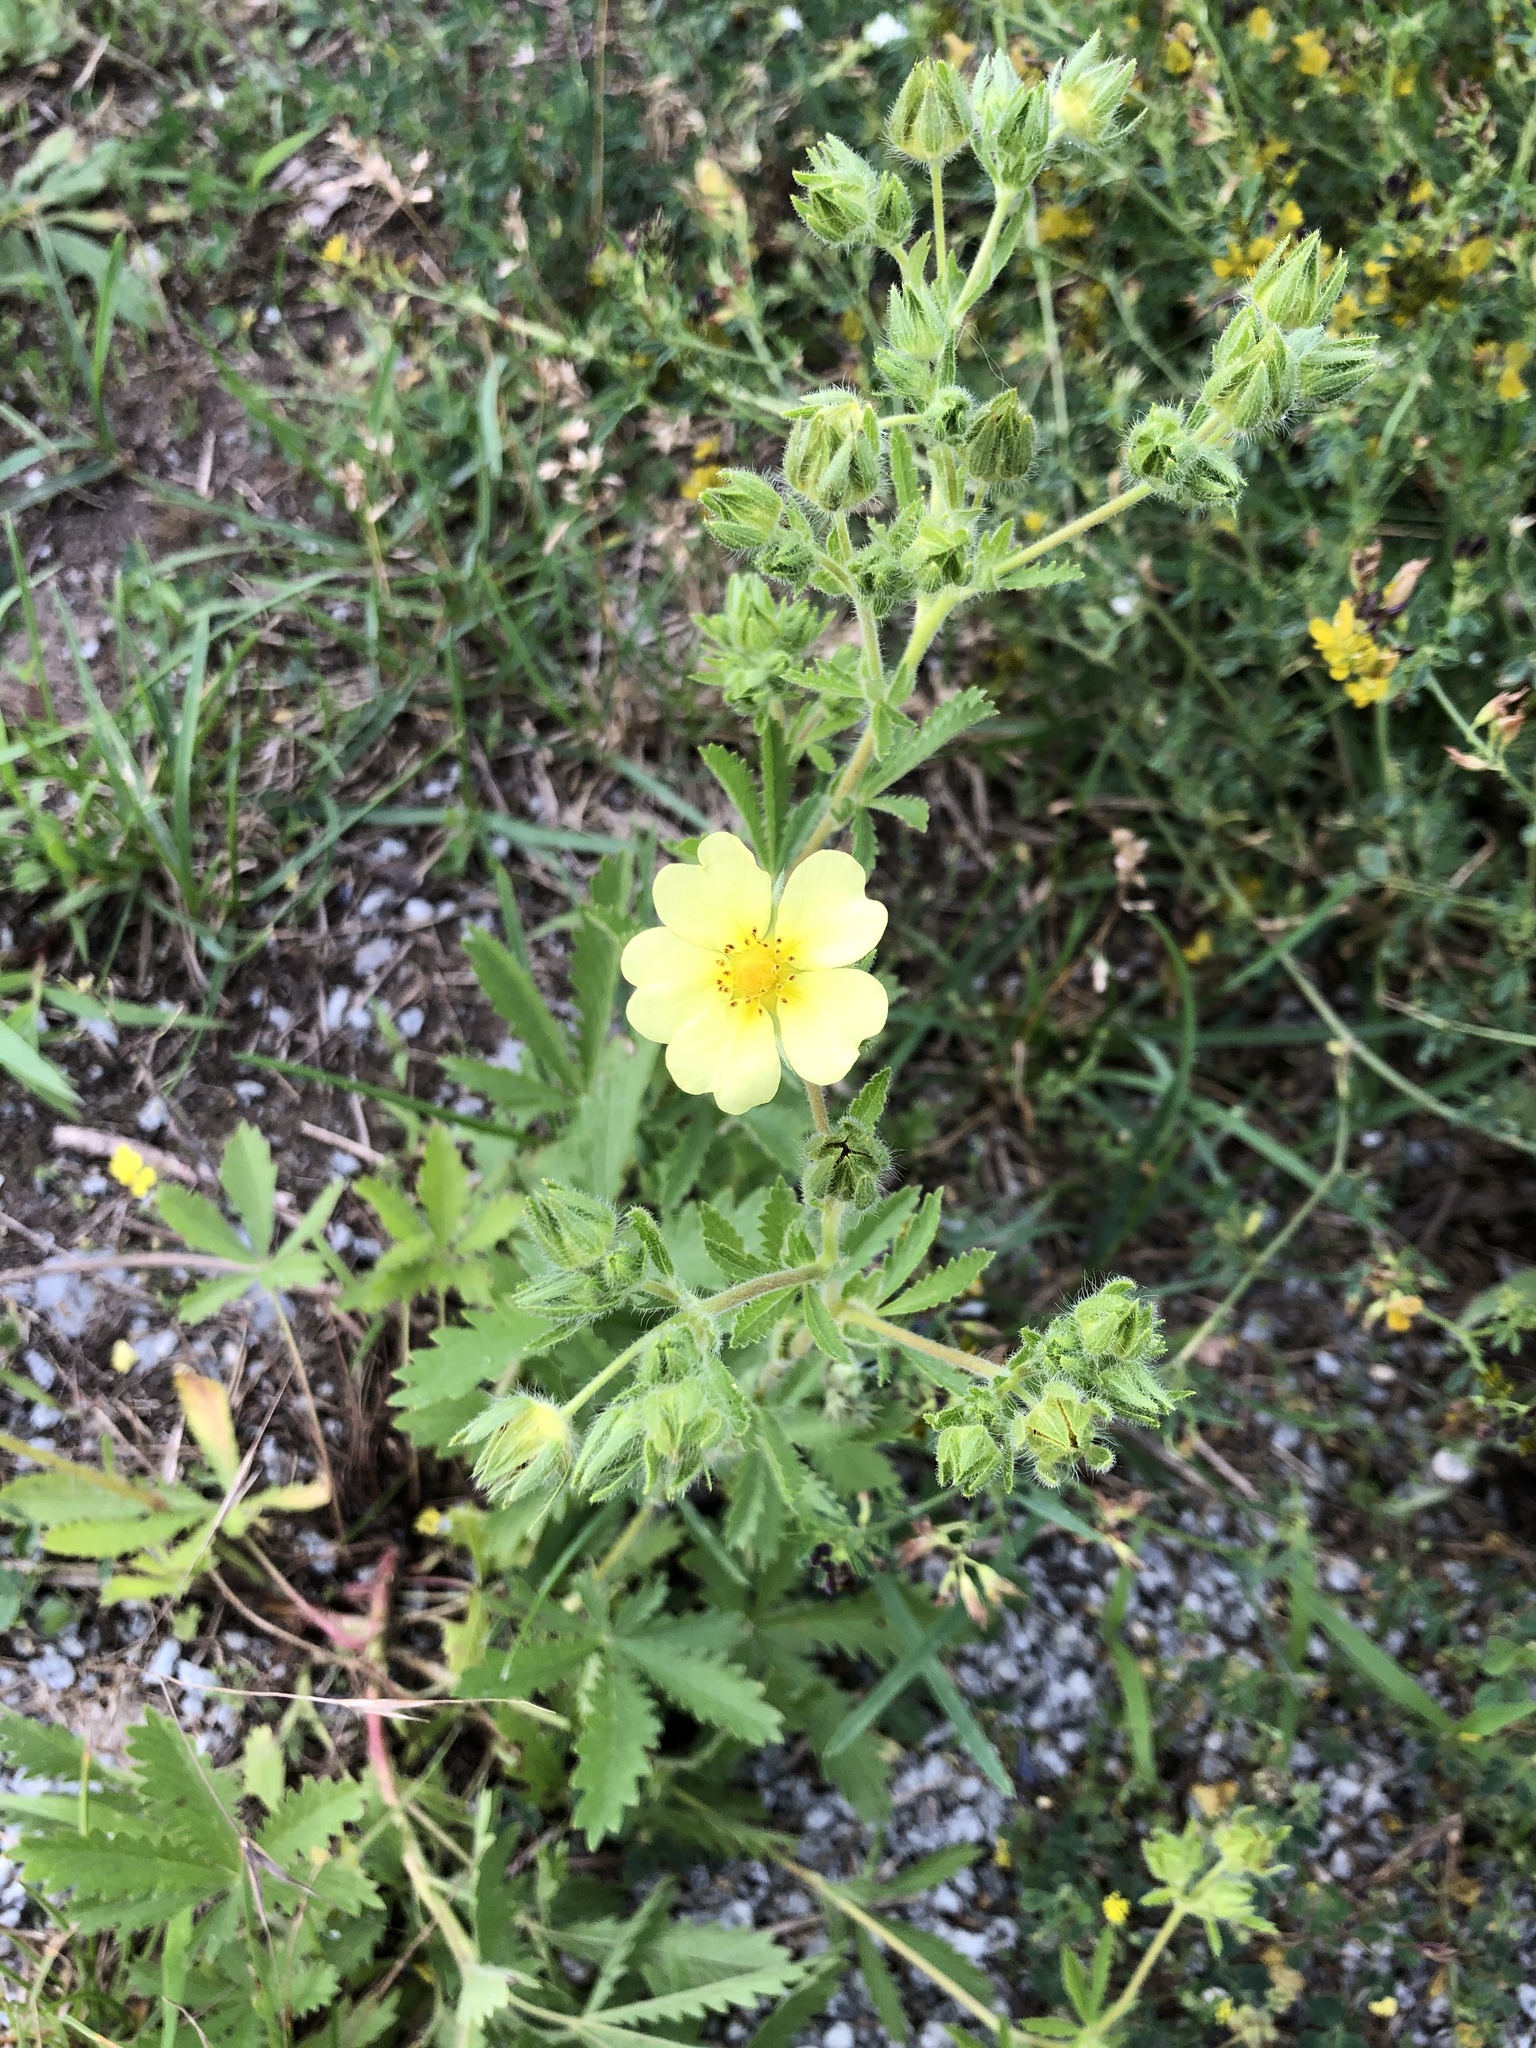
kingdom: Plantae
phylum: Tracheophyta
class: Magnoliopsida
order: Rosales
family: Rosaceae
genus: Potentilla
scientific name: Potentilla recta
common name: Sulphur cinquefoil
